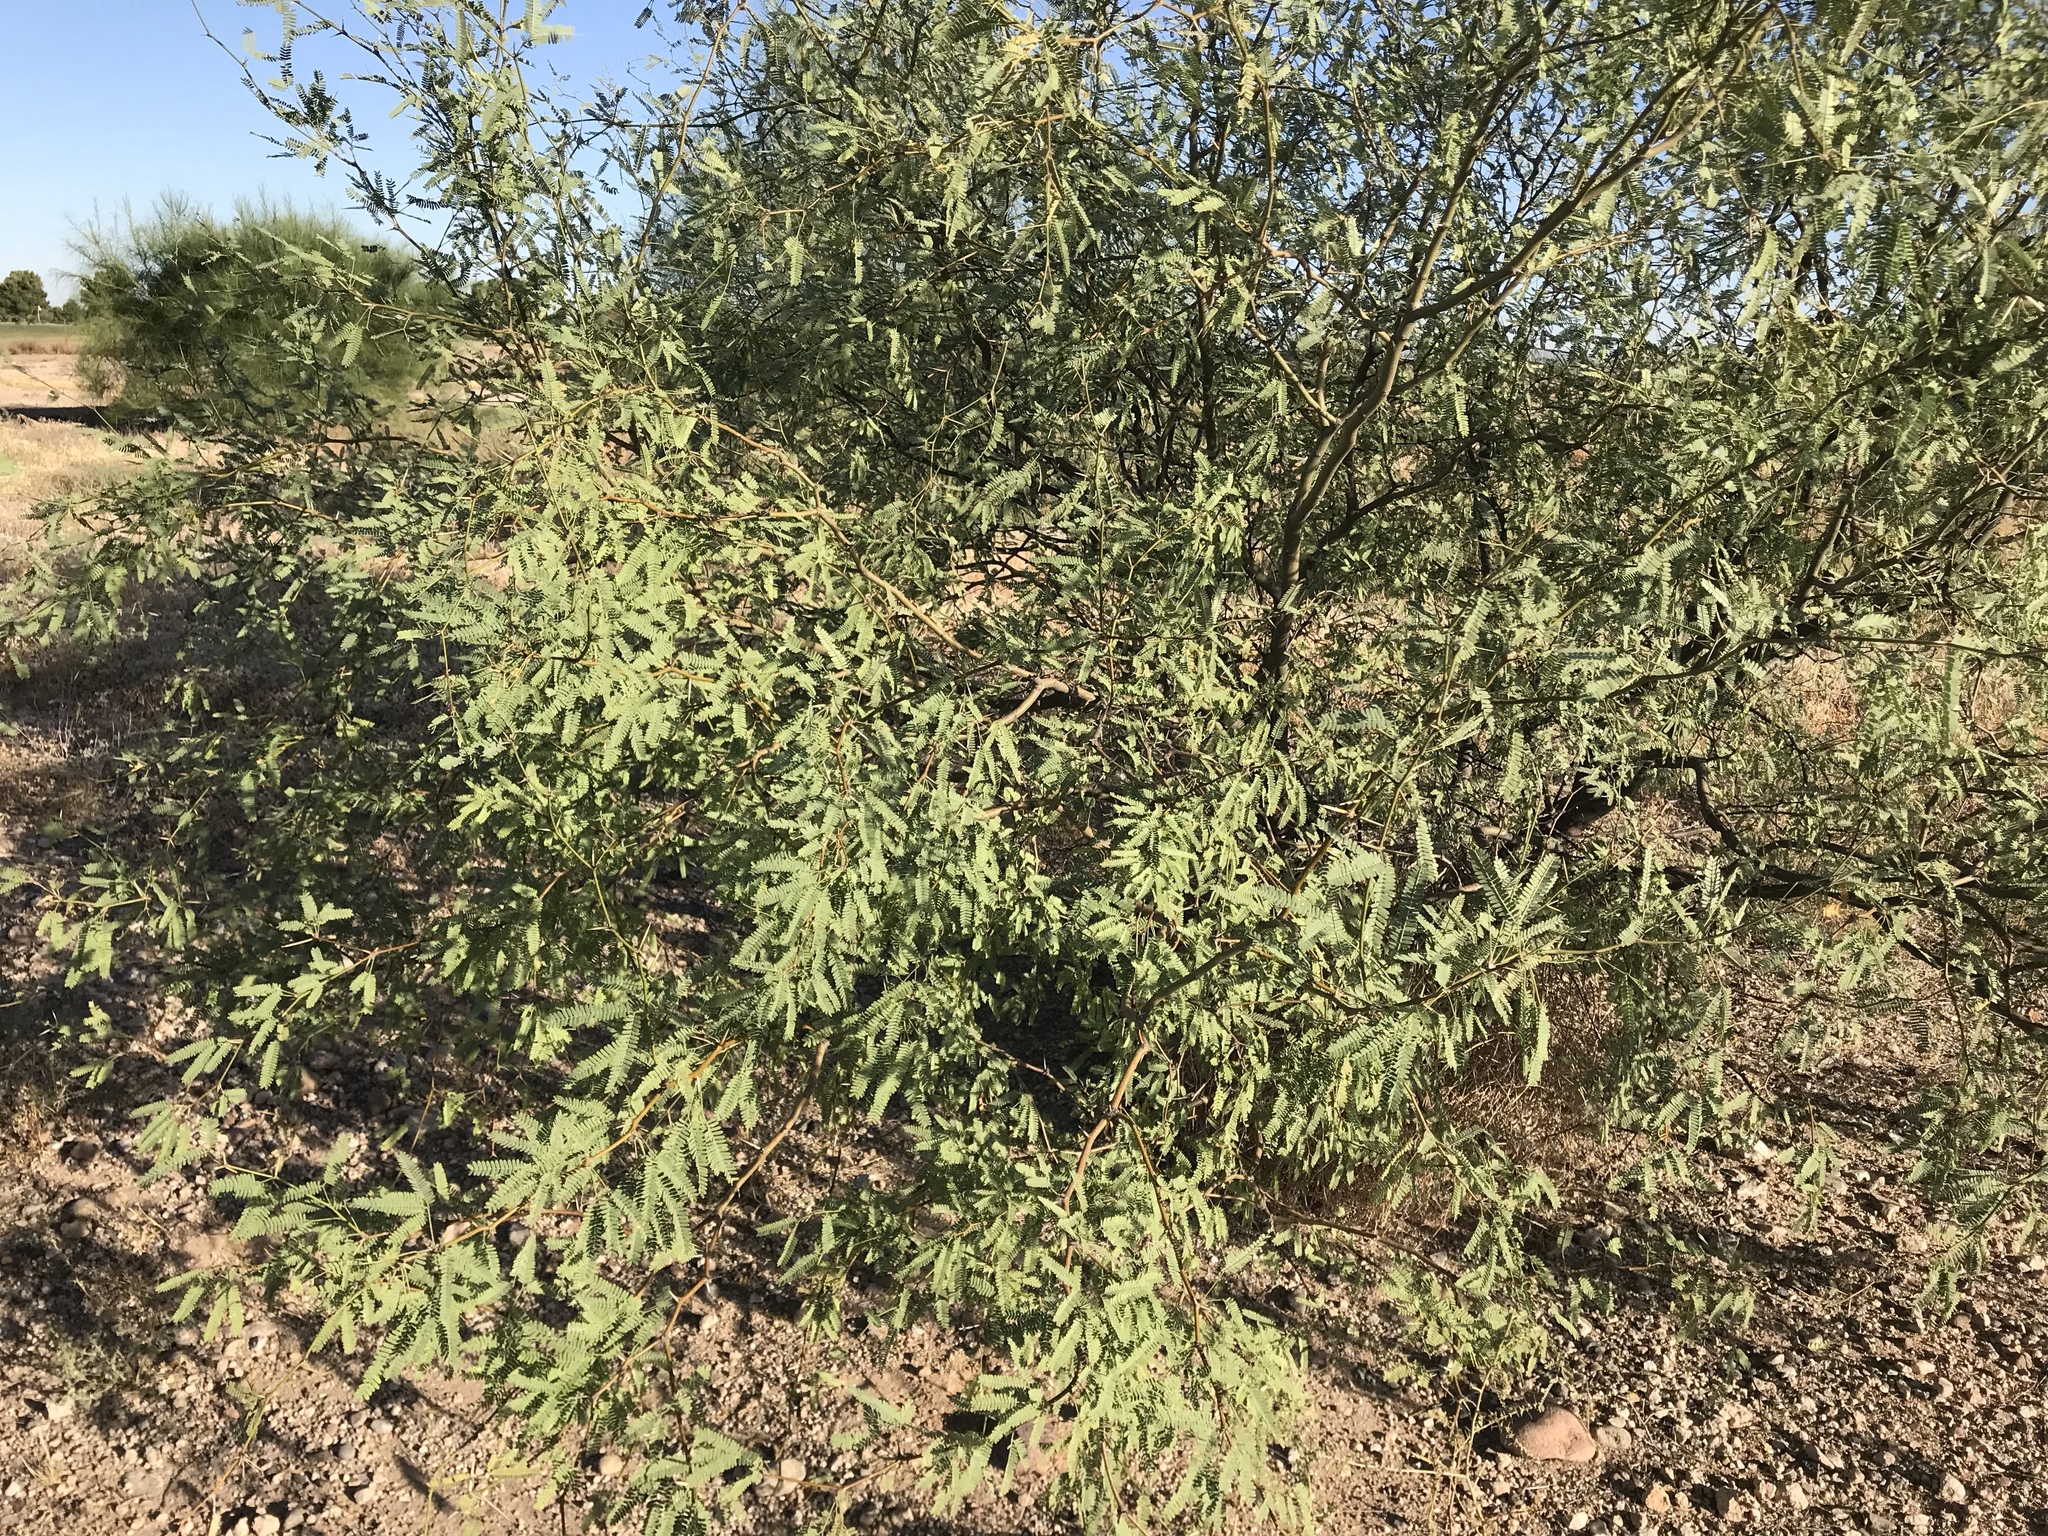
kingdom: Plantae
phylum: Tracheophyta
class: Magnoliopsida
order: Fabales
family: Fabaceae
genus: Prosopis
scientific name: Prosopis velutina
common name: Velvet mesquite
